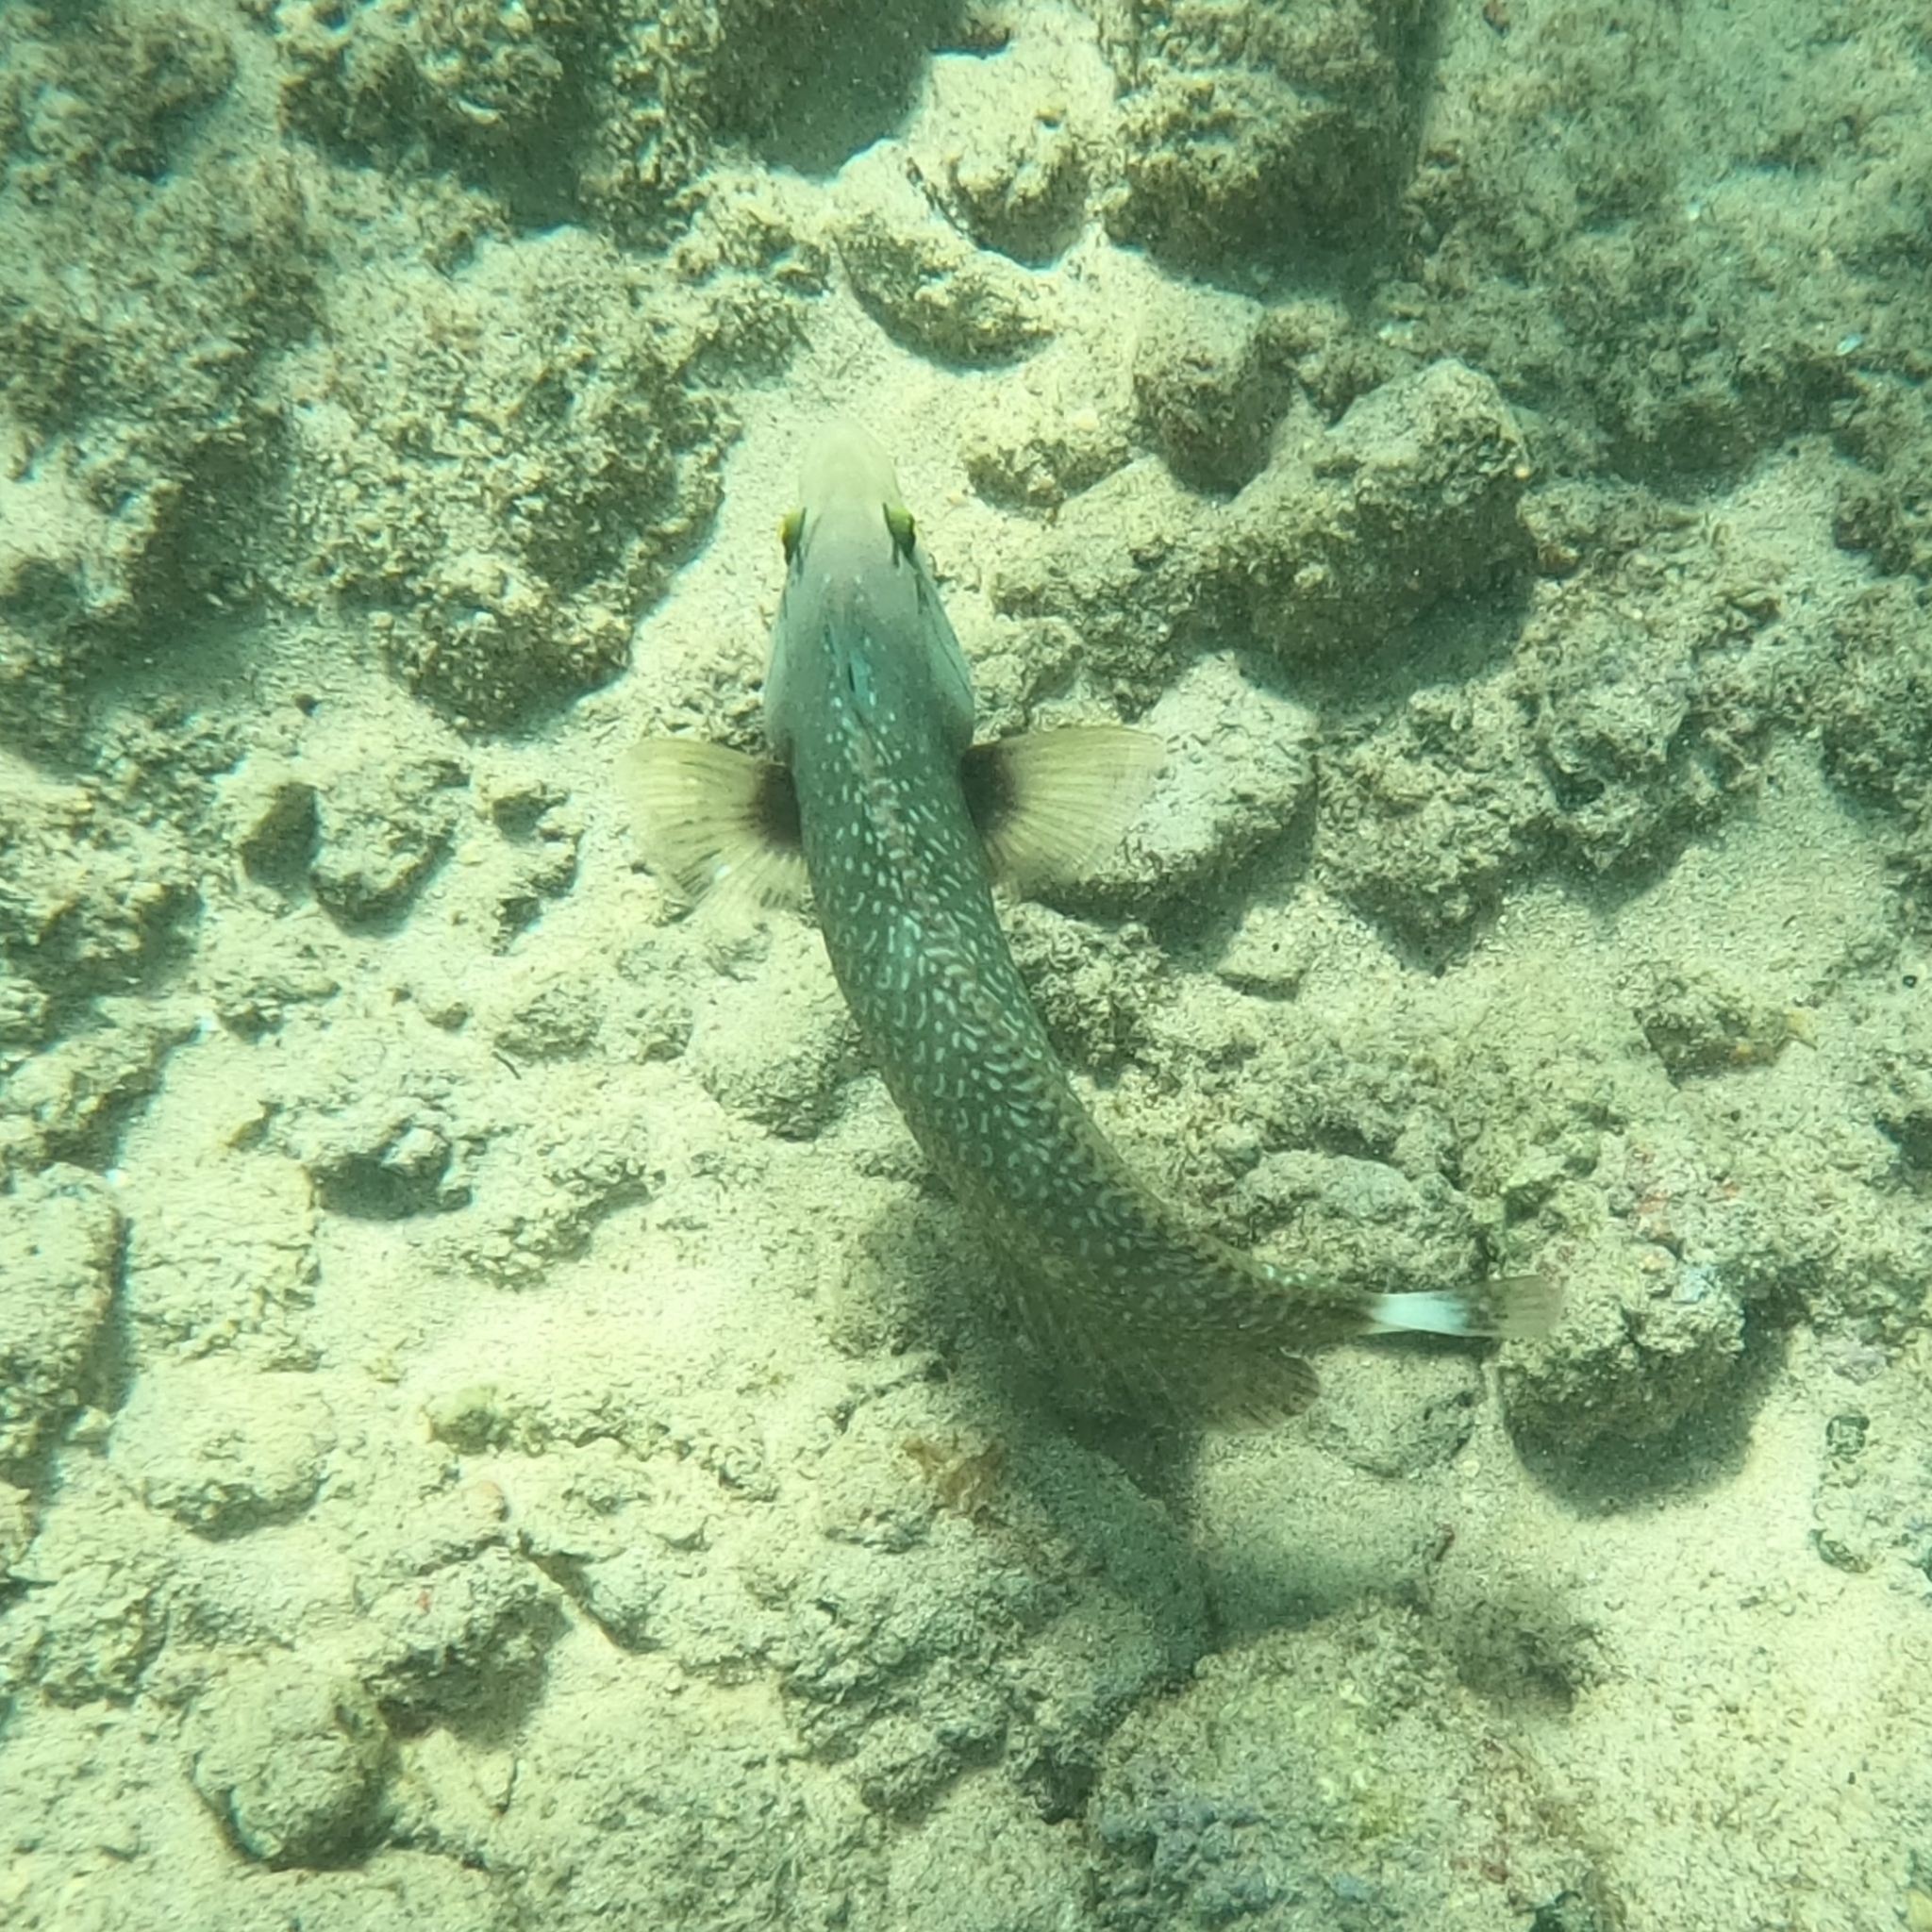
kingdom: Animalia
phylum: Chordata
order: Perciformes
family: Labridae
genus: Novaculichthys
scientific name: Novaculichthys taeniourus
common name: Rockmover wrasse
